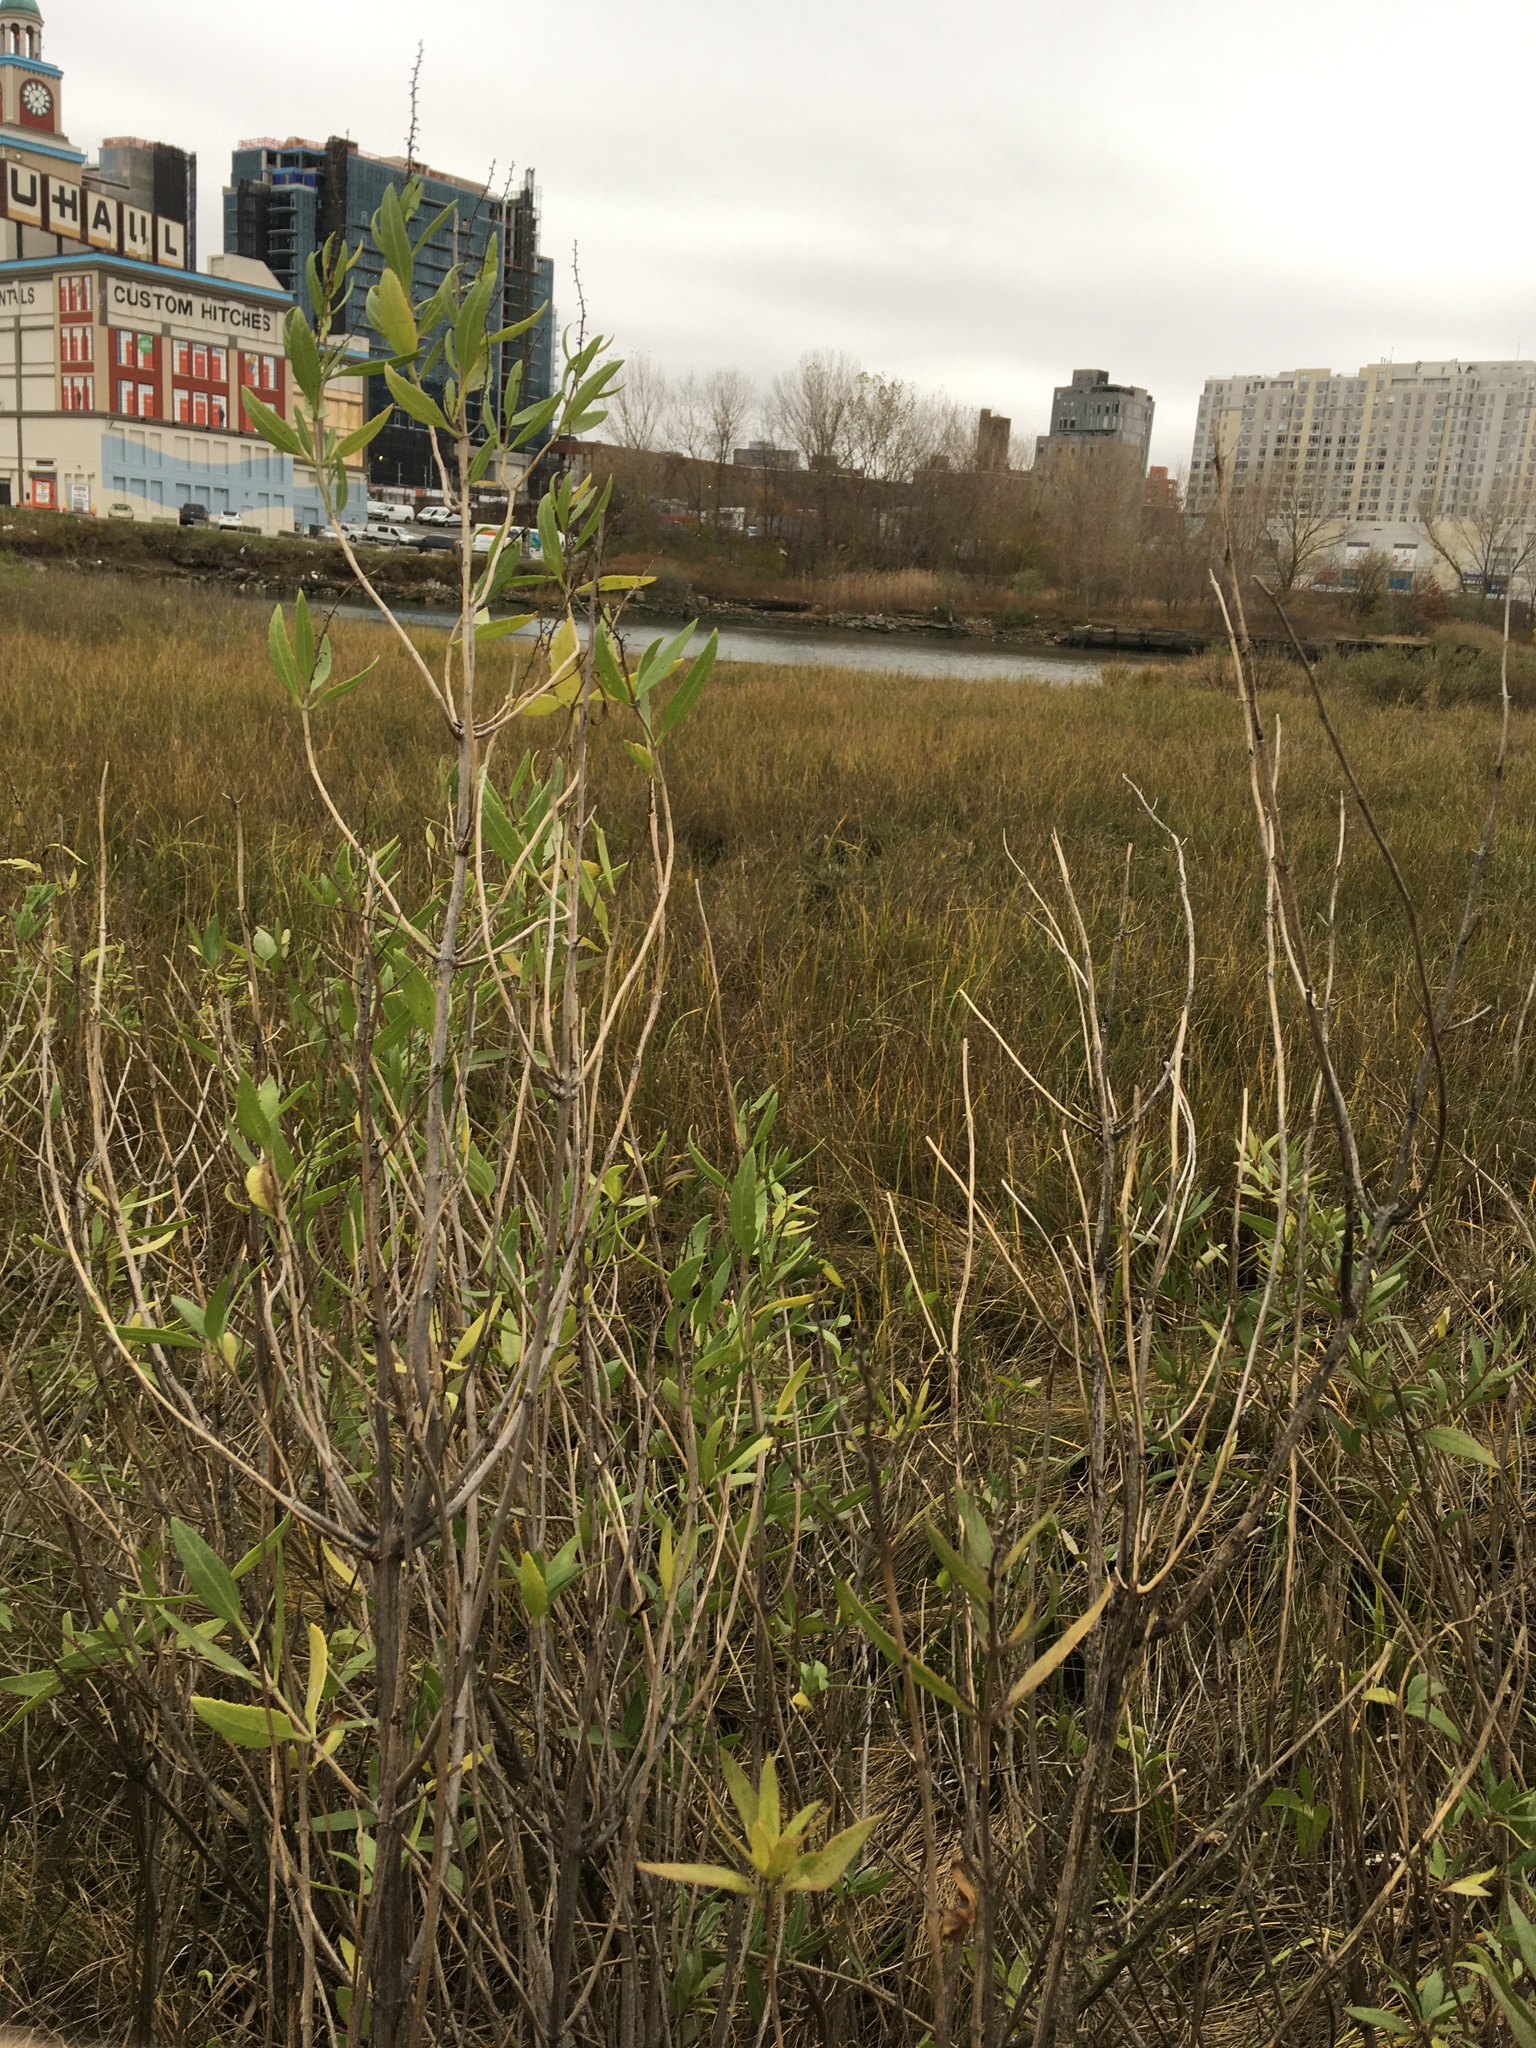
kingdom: Plantae
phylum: Tracheophyta
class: Magnoliopsida
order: Asterales
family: Asteraceae
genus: Iva
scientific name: Iva frutescens
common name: Big-leaved marsh-elder
